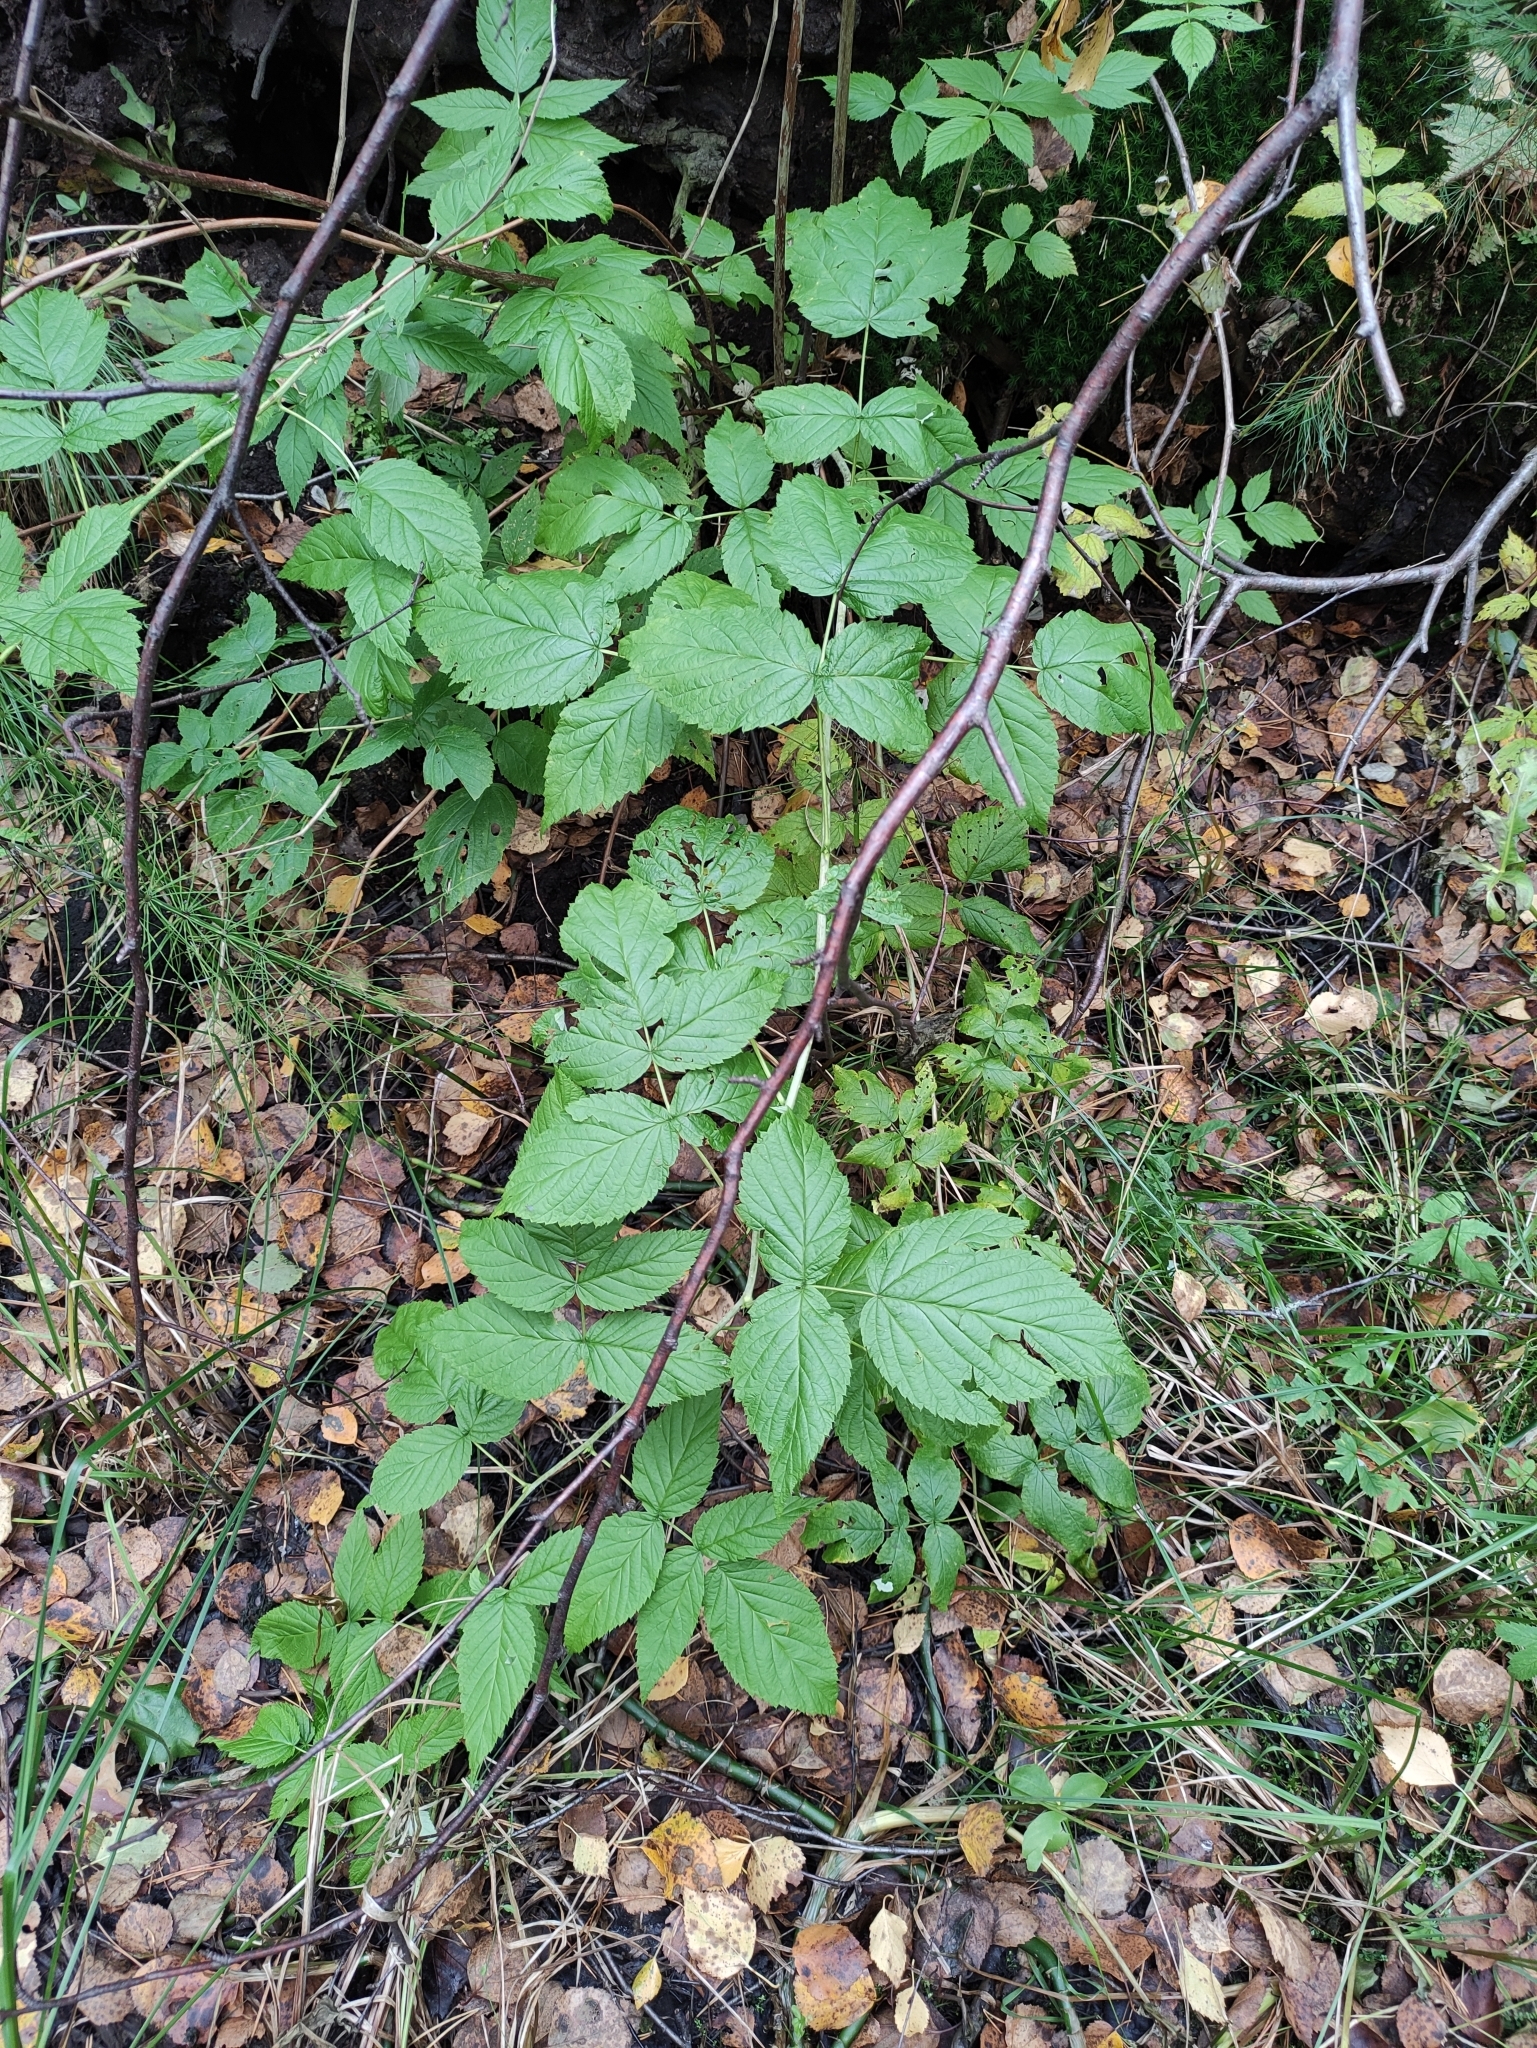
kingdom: Plantae
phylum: Tracheophyta
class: Magnoliopsida
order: Rosales
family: Rosaceae
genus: Rubus
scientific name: Rubus idaeus
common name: Raspberry
